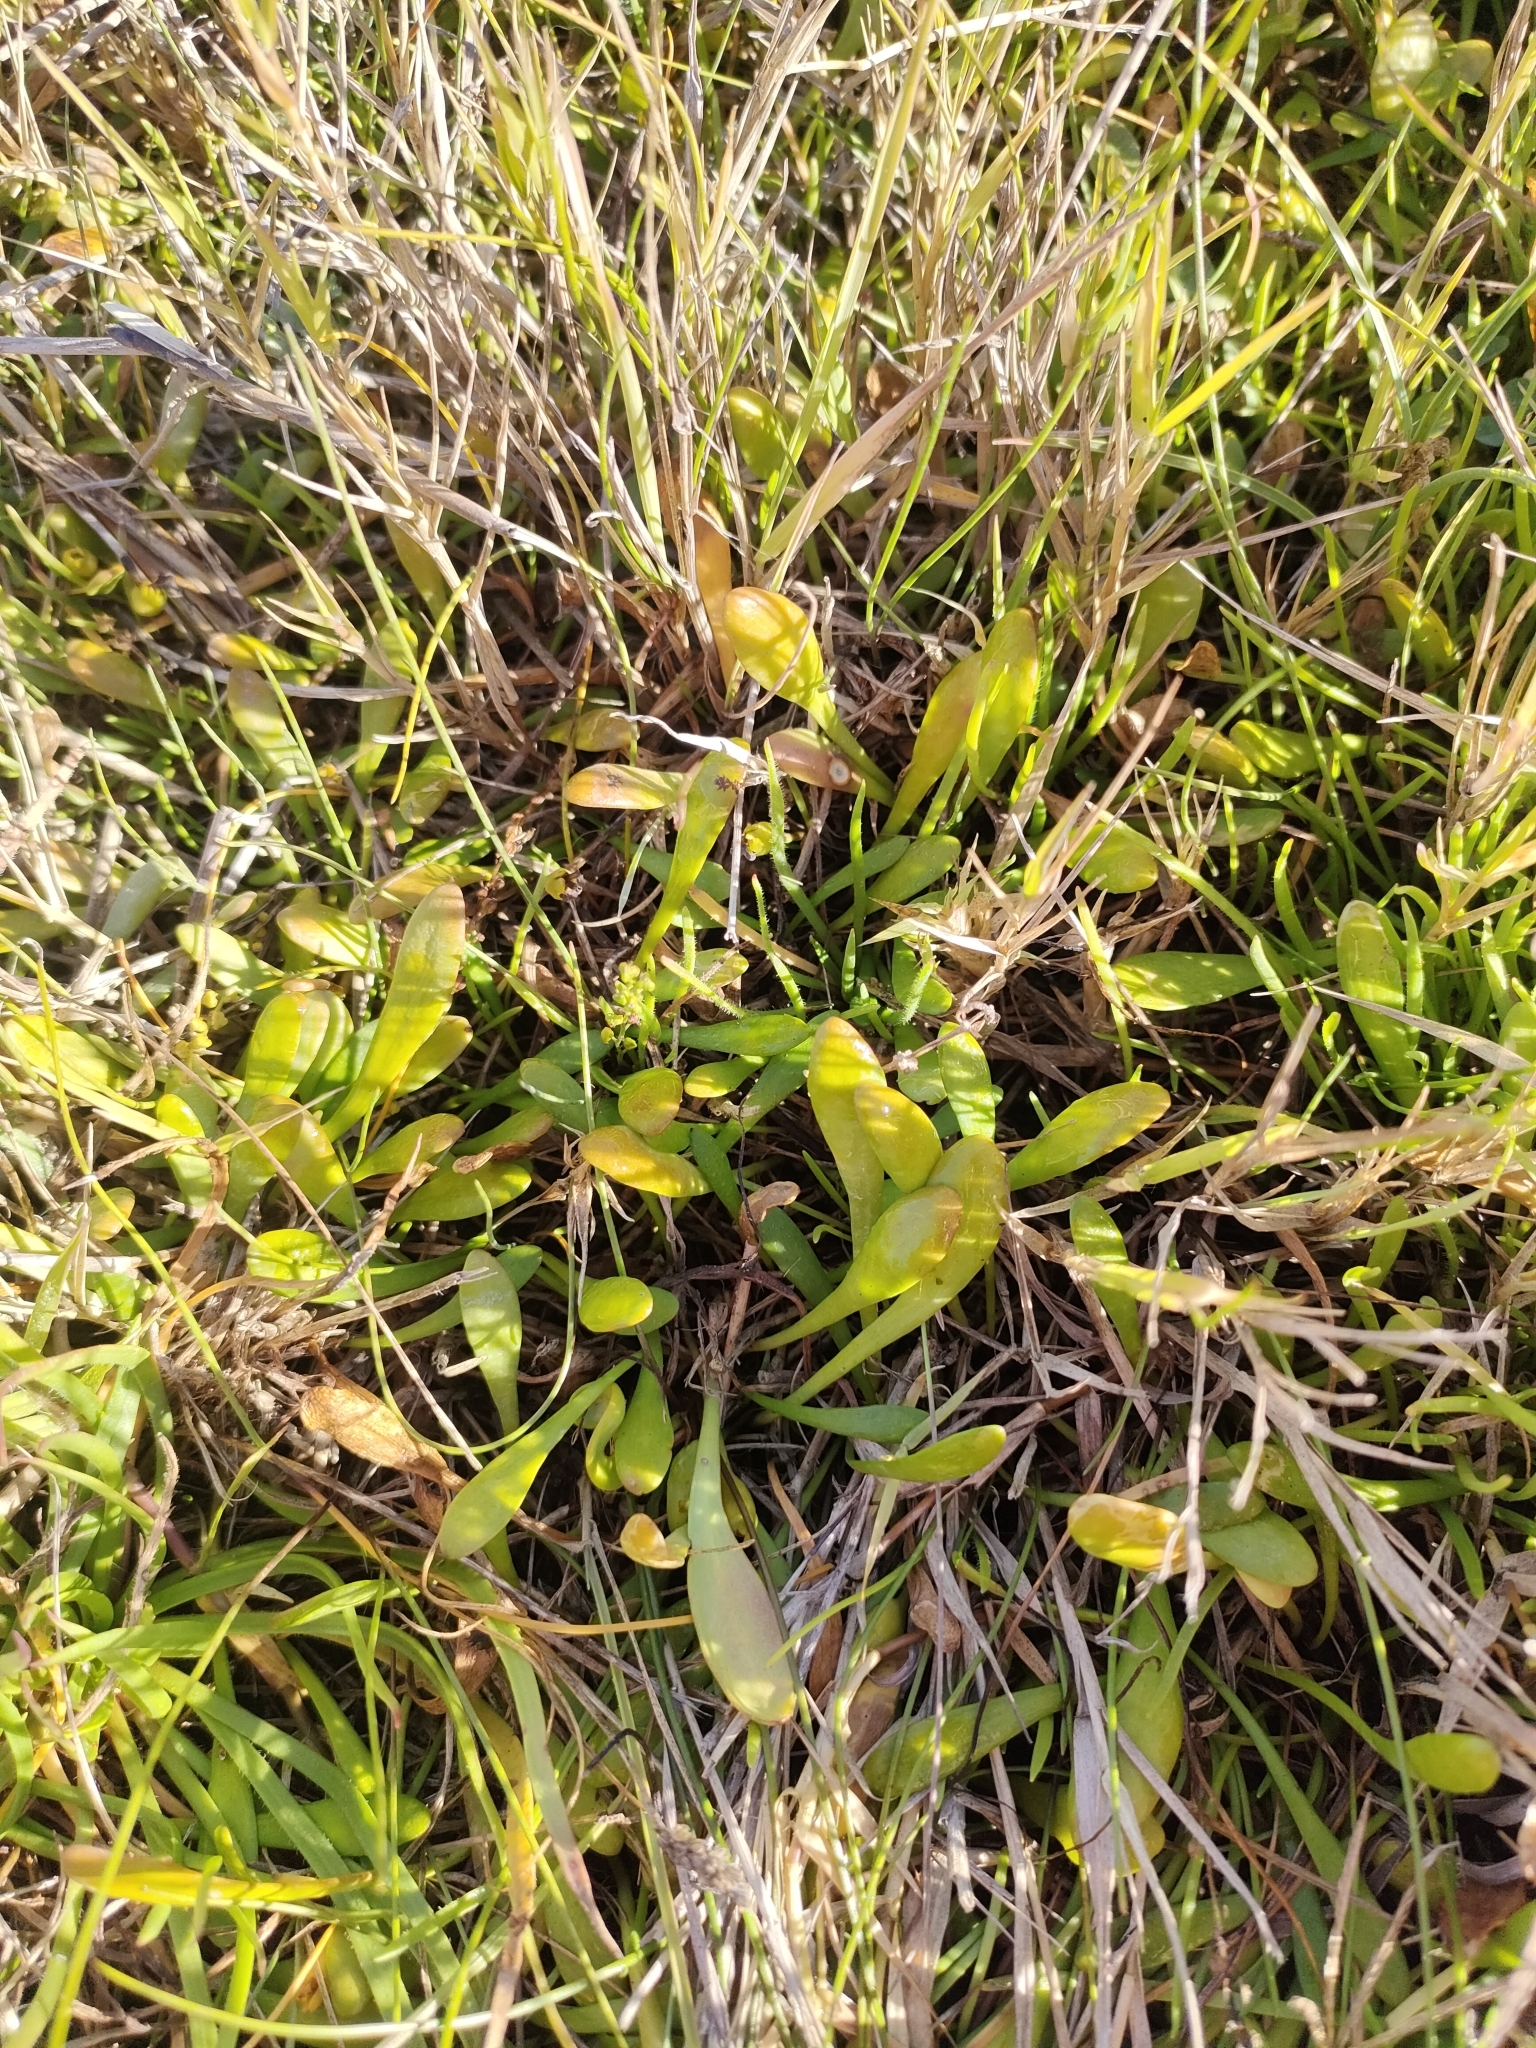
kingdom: Plantae
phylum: Tracheophyta
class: Magnoliopsida
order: Asterales
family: Goodeniaceae
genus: Goodenia
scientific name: Goodenia radicans
